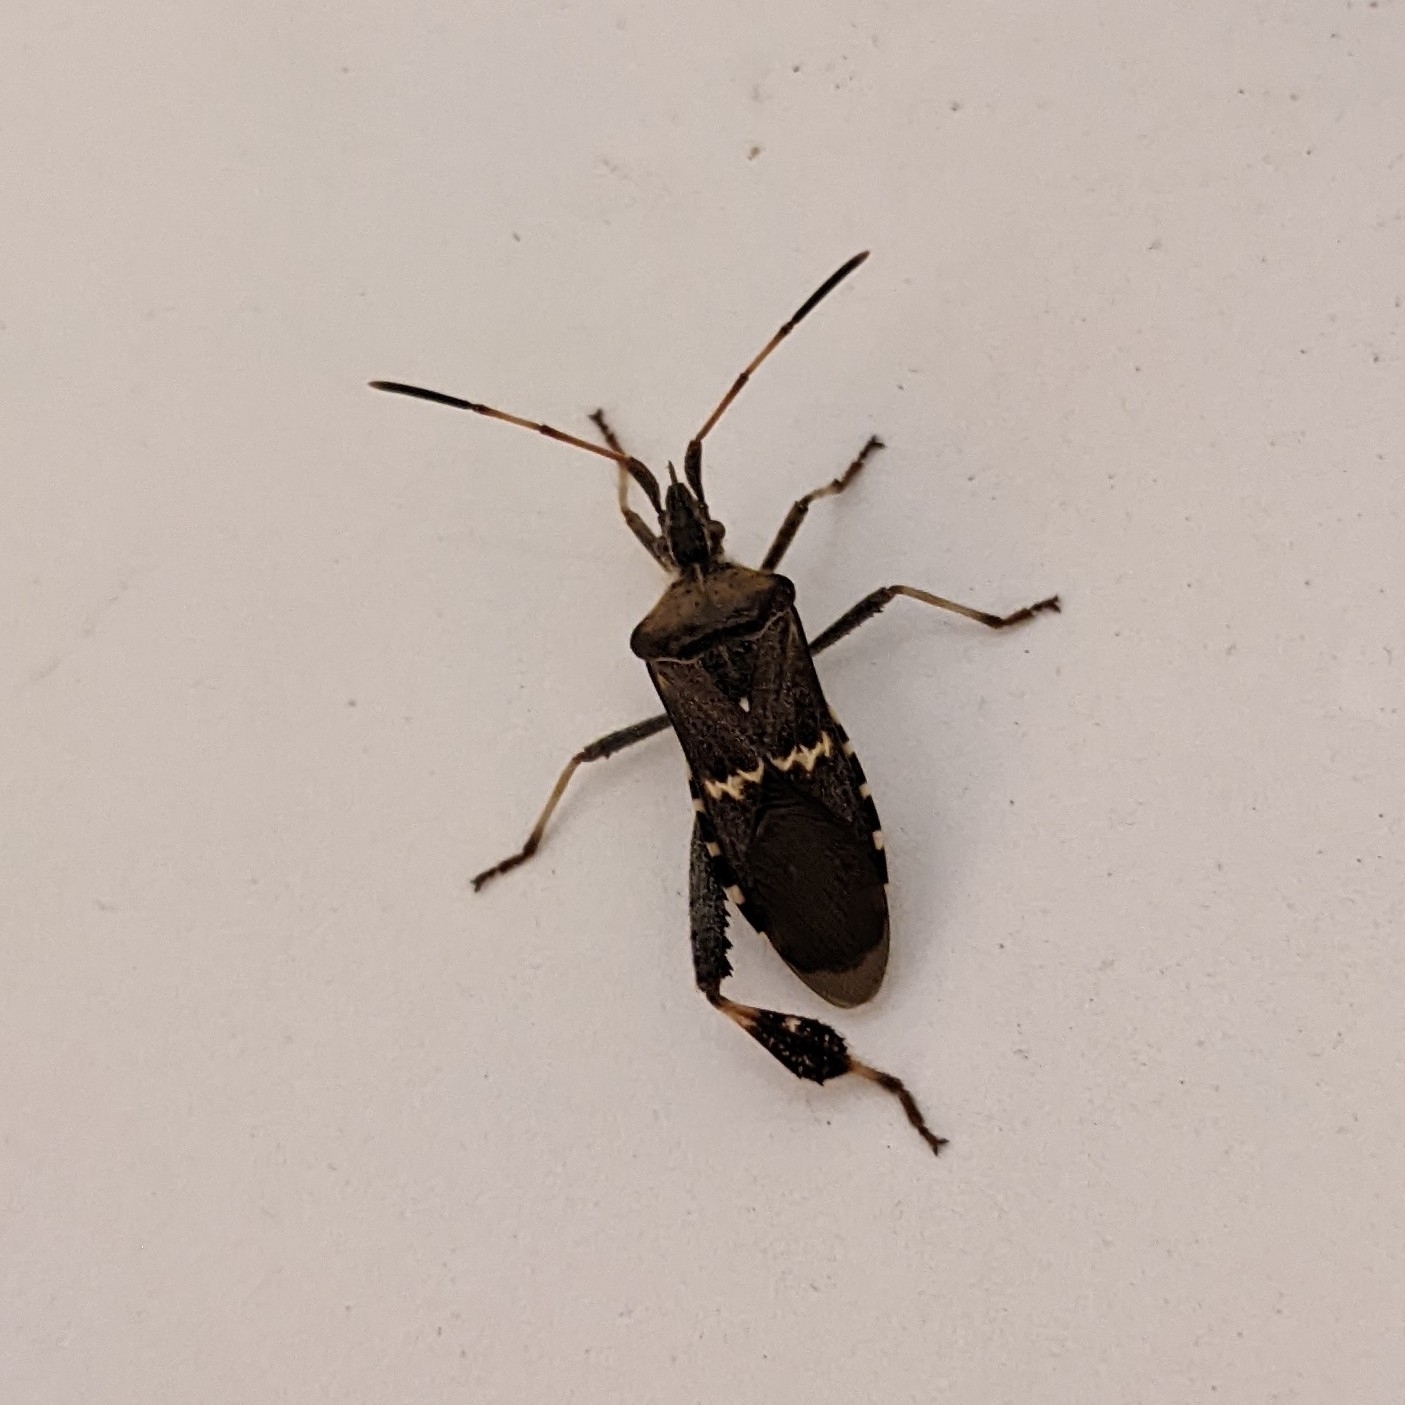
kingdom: Animalia
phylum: Arthropoda
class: Insecta
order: Hemiptera
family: Coreidae
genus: Leptoglossus
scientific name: Leptoglossus clypealis
